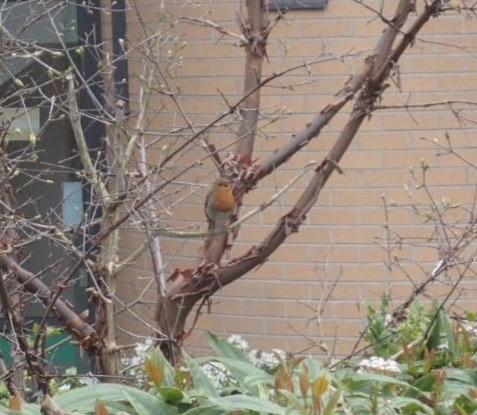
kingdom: Animalia
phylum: Chordata
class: Aves
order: Passeriformes
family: Muscicapidae
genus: Erithacus
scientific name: Erithacus rubecula
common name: European robin
